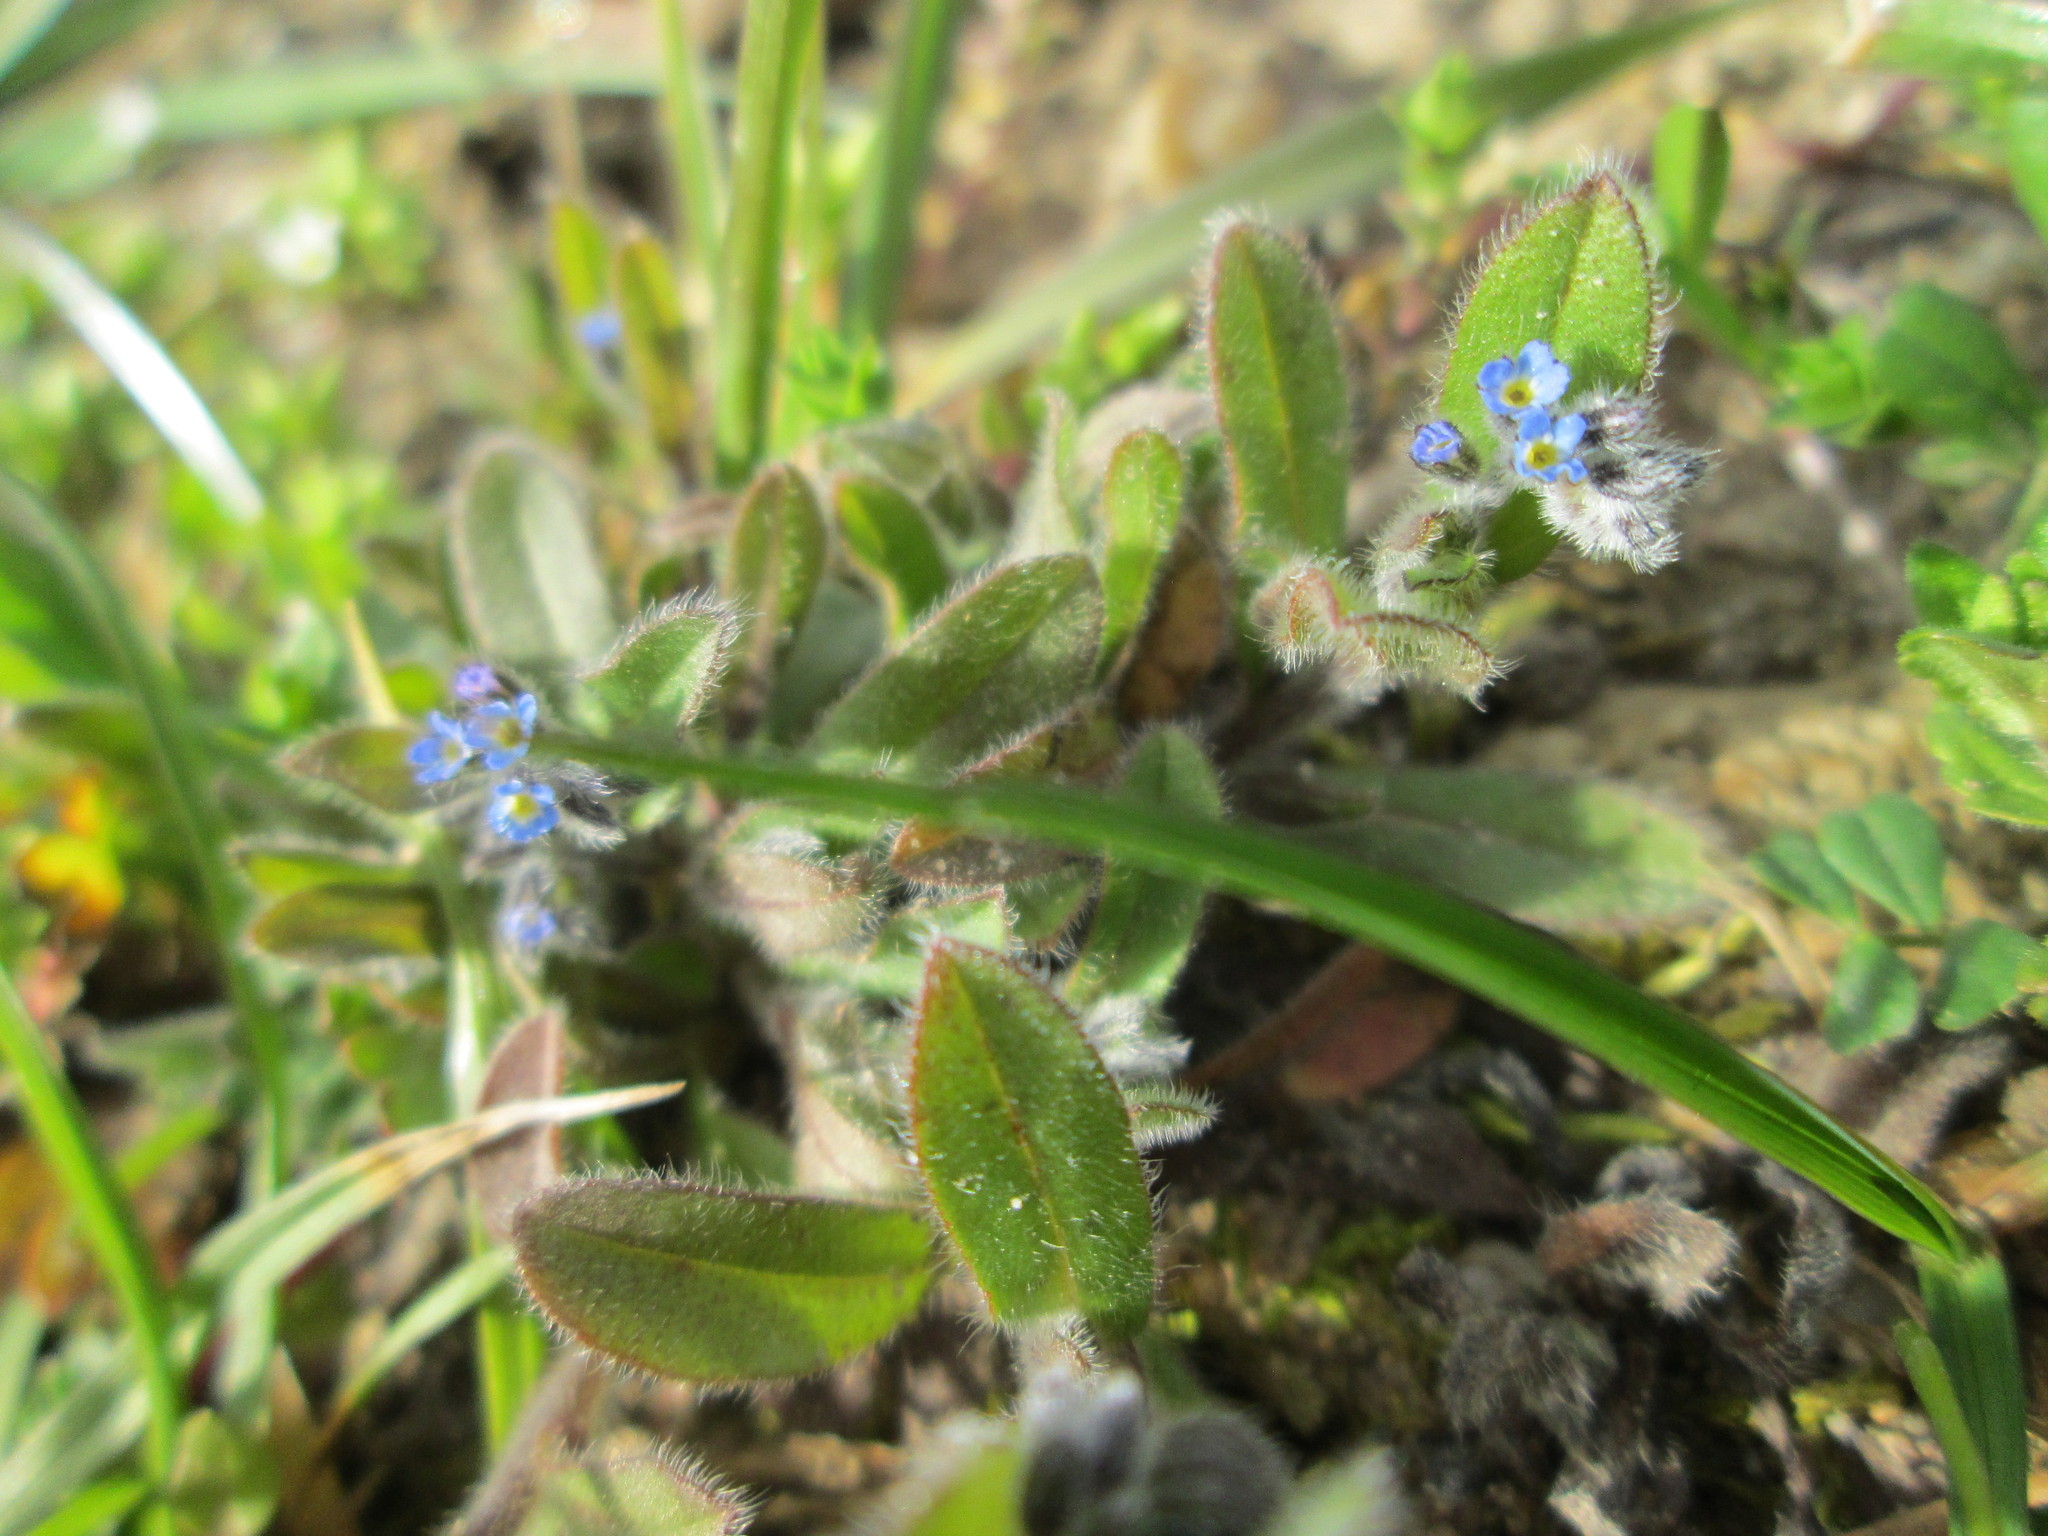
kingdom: Plantae
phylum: Tracheophyta
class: Magnoliopsida
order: Boraginales
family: Boraginaceae
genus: Myosotis
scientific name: Myosotis ramosissima
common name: Early forget-me-not
